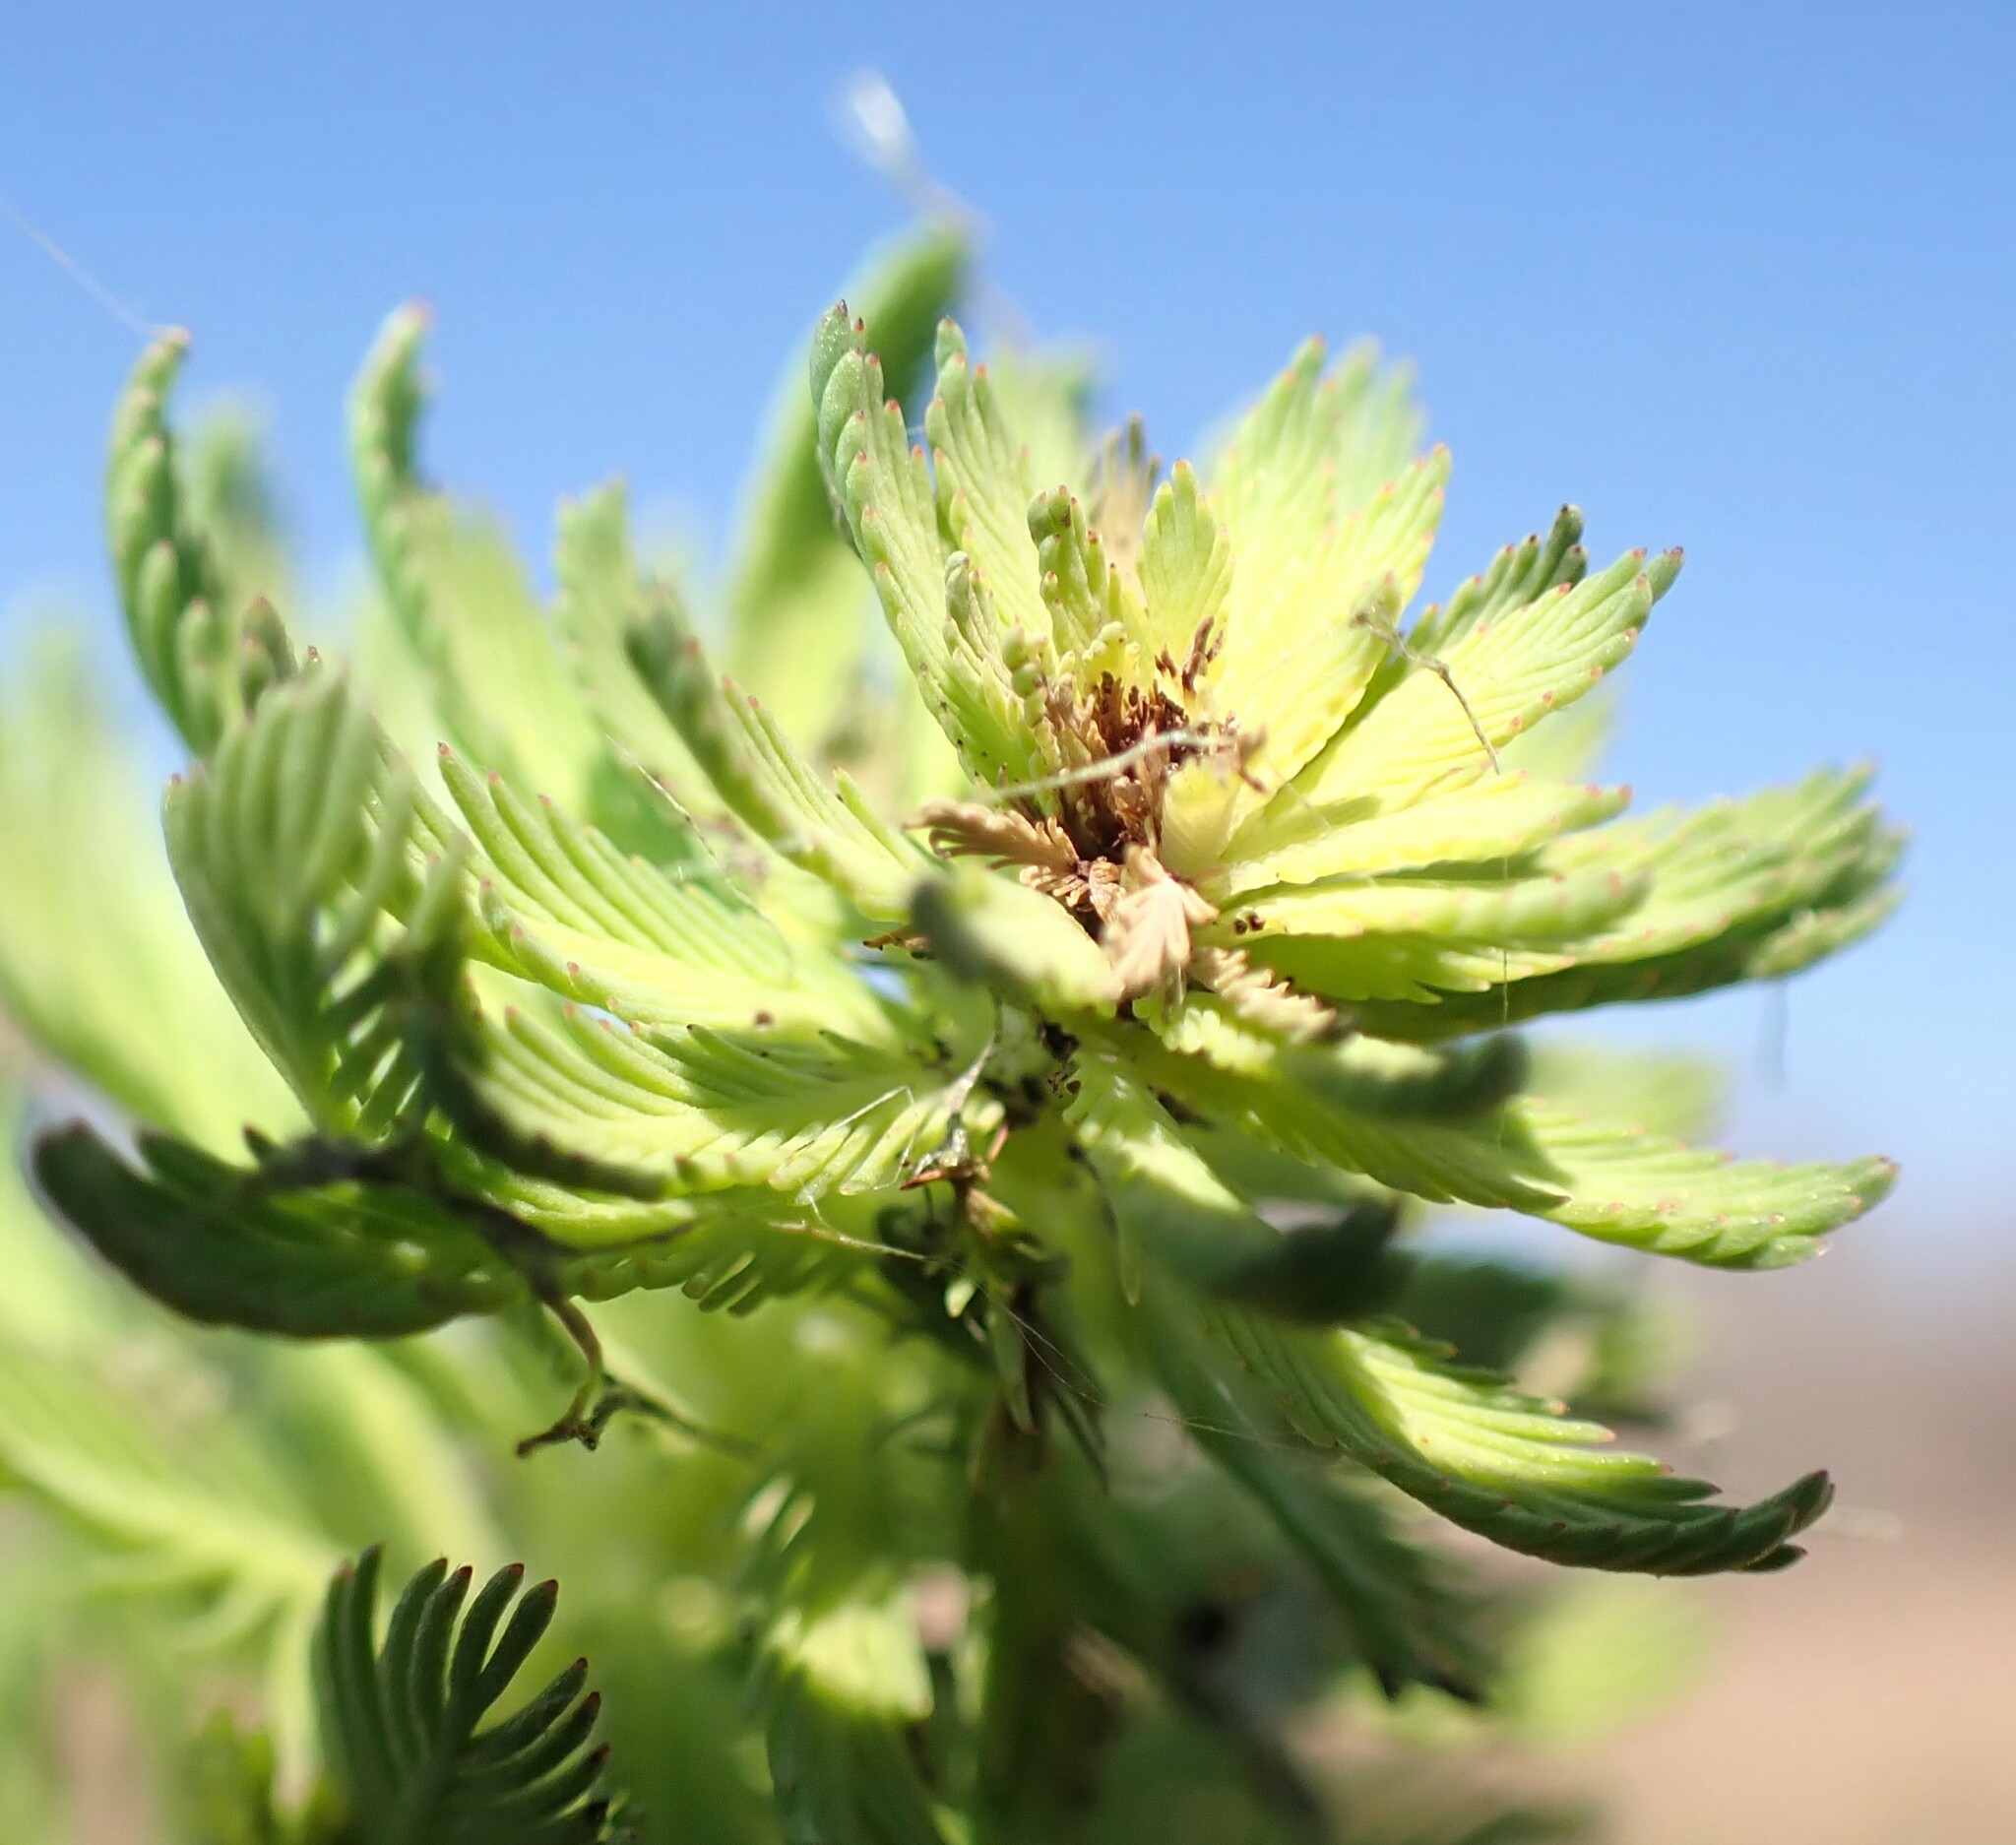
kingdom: Plantae
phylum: Tracheophyta
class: Magnoliopsida
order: Saxifragales
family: Haloragaceae
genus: Myriophyllum
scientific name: Myriophyllum aquaticum
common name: Parrot's feather
